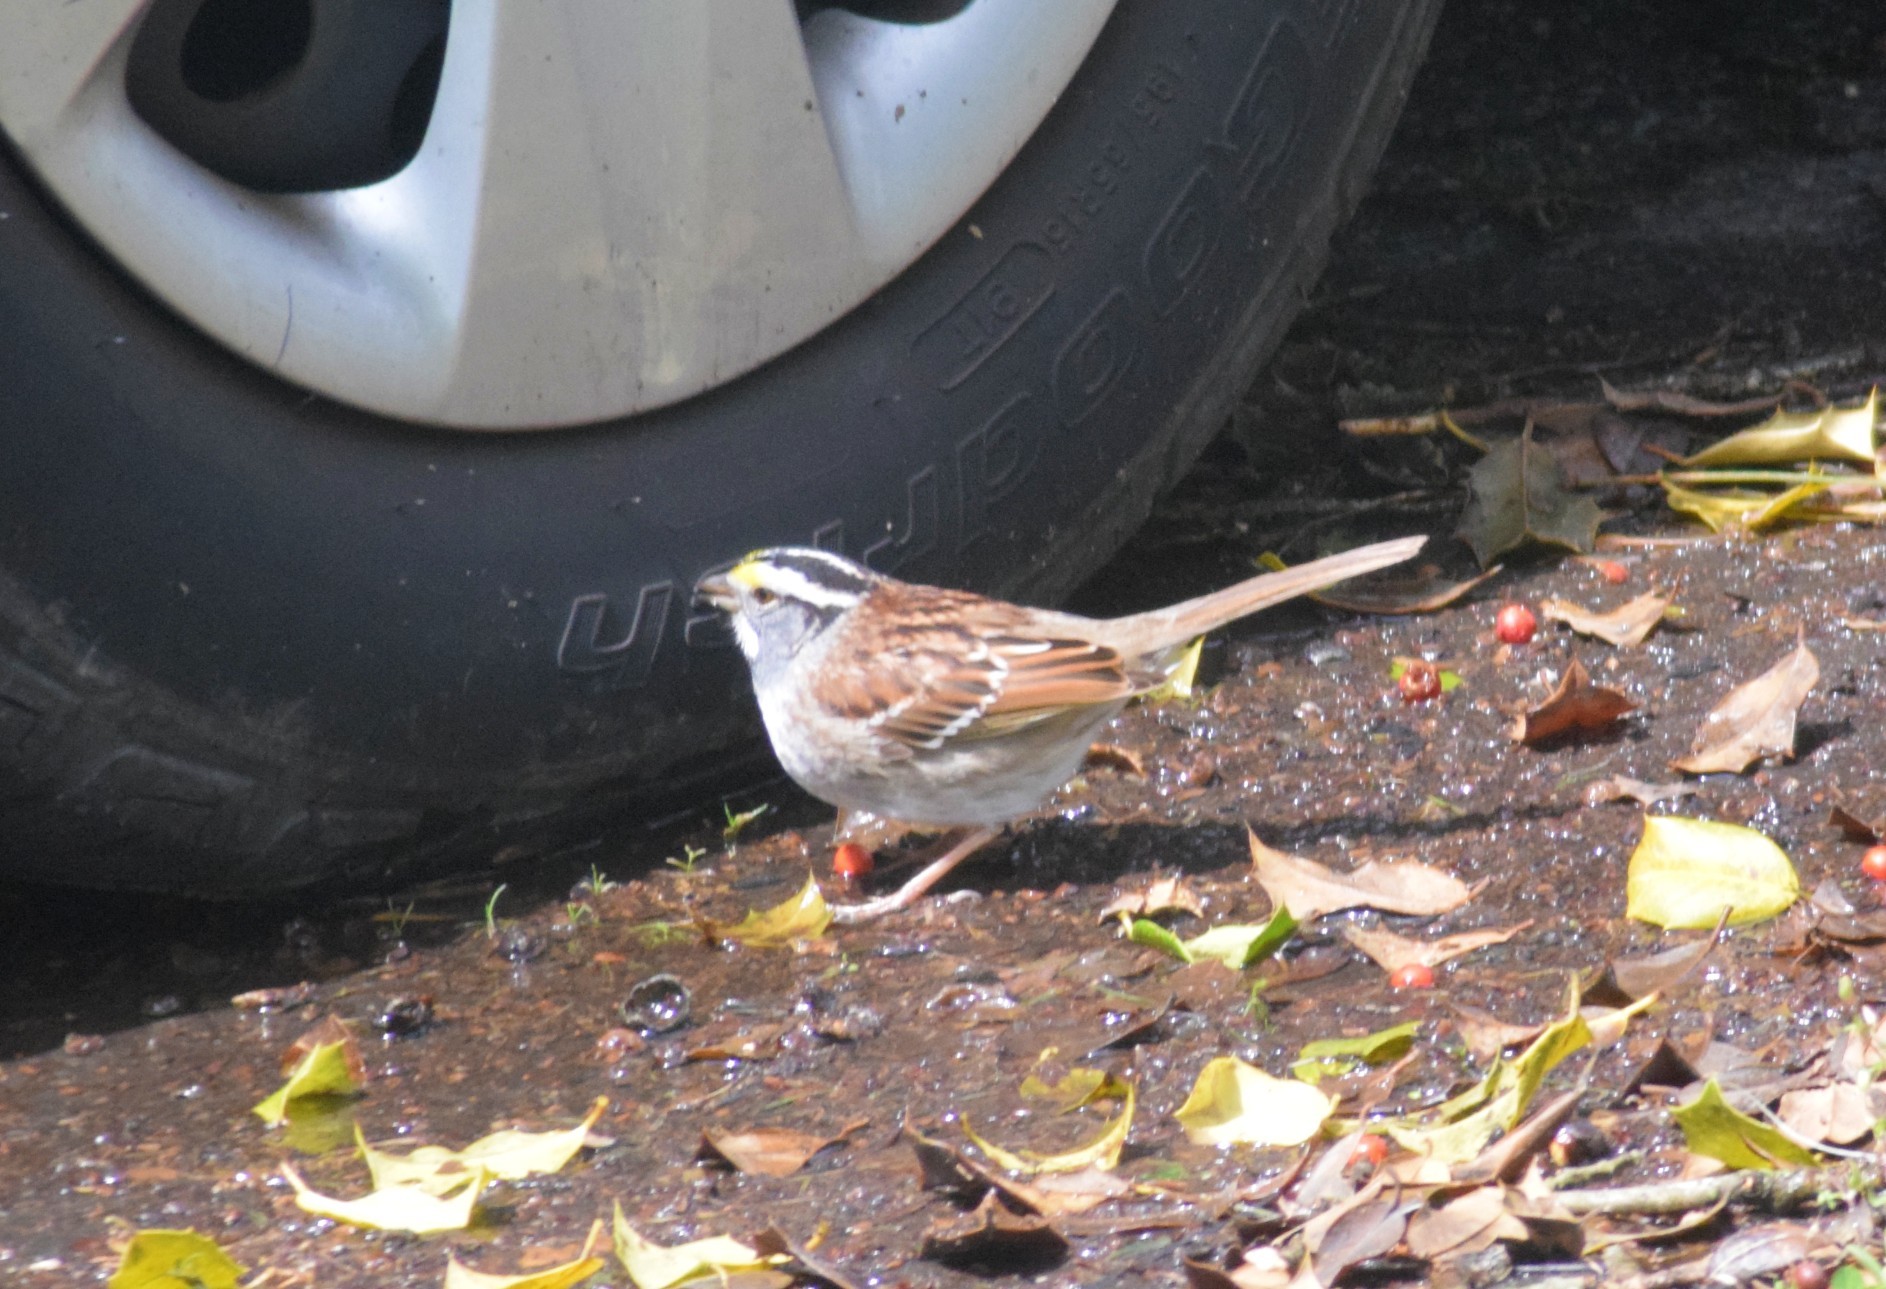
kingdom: Animalia
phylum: Chordata
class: Aves
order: Passeriformes
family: Passerellidae
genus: Zonotrichia
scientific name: Zonotrichia albicollis
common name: White-throated sparrow
